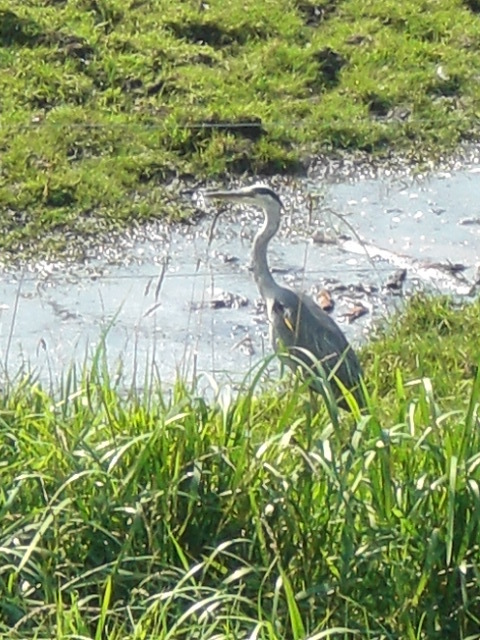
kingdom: Animalia
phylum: Chordata
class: Aves
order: Pelecaniformes
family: Ardeidae
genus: Ardea
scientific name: Ardea cinerea
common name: Grey heron
